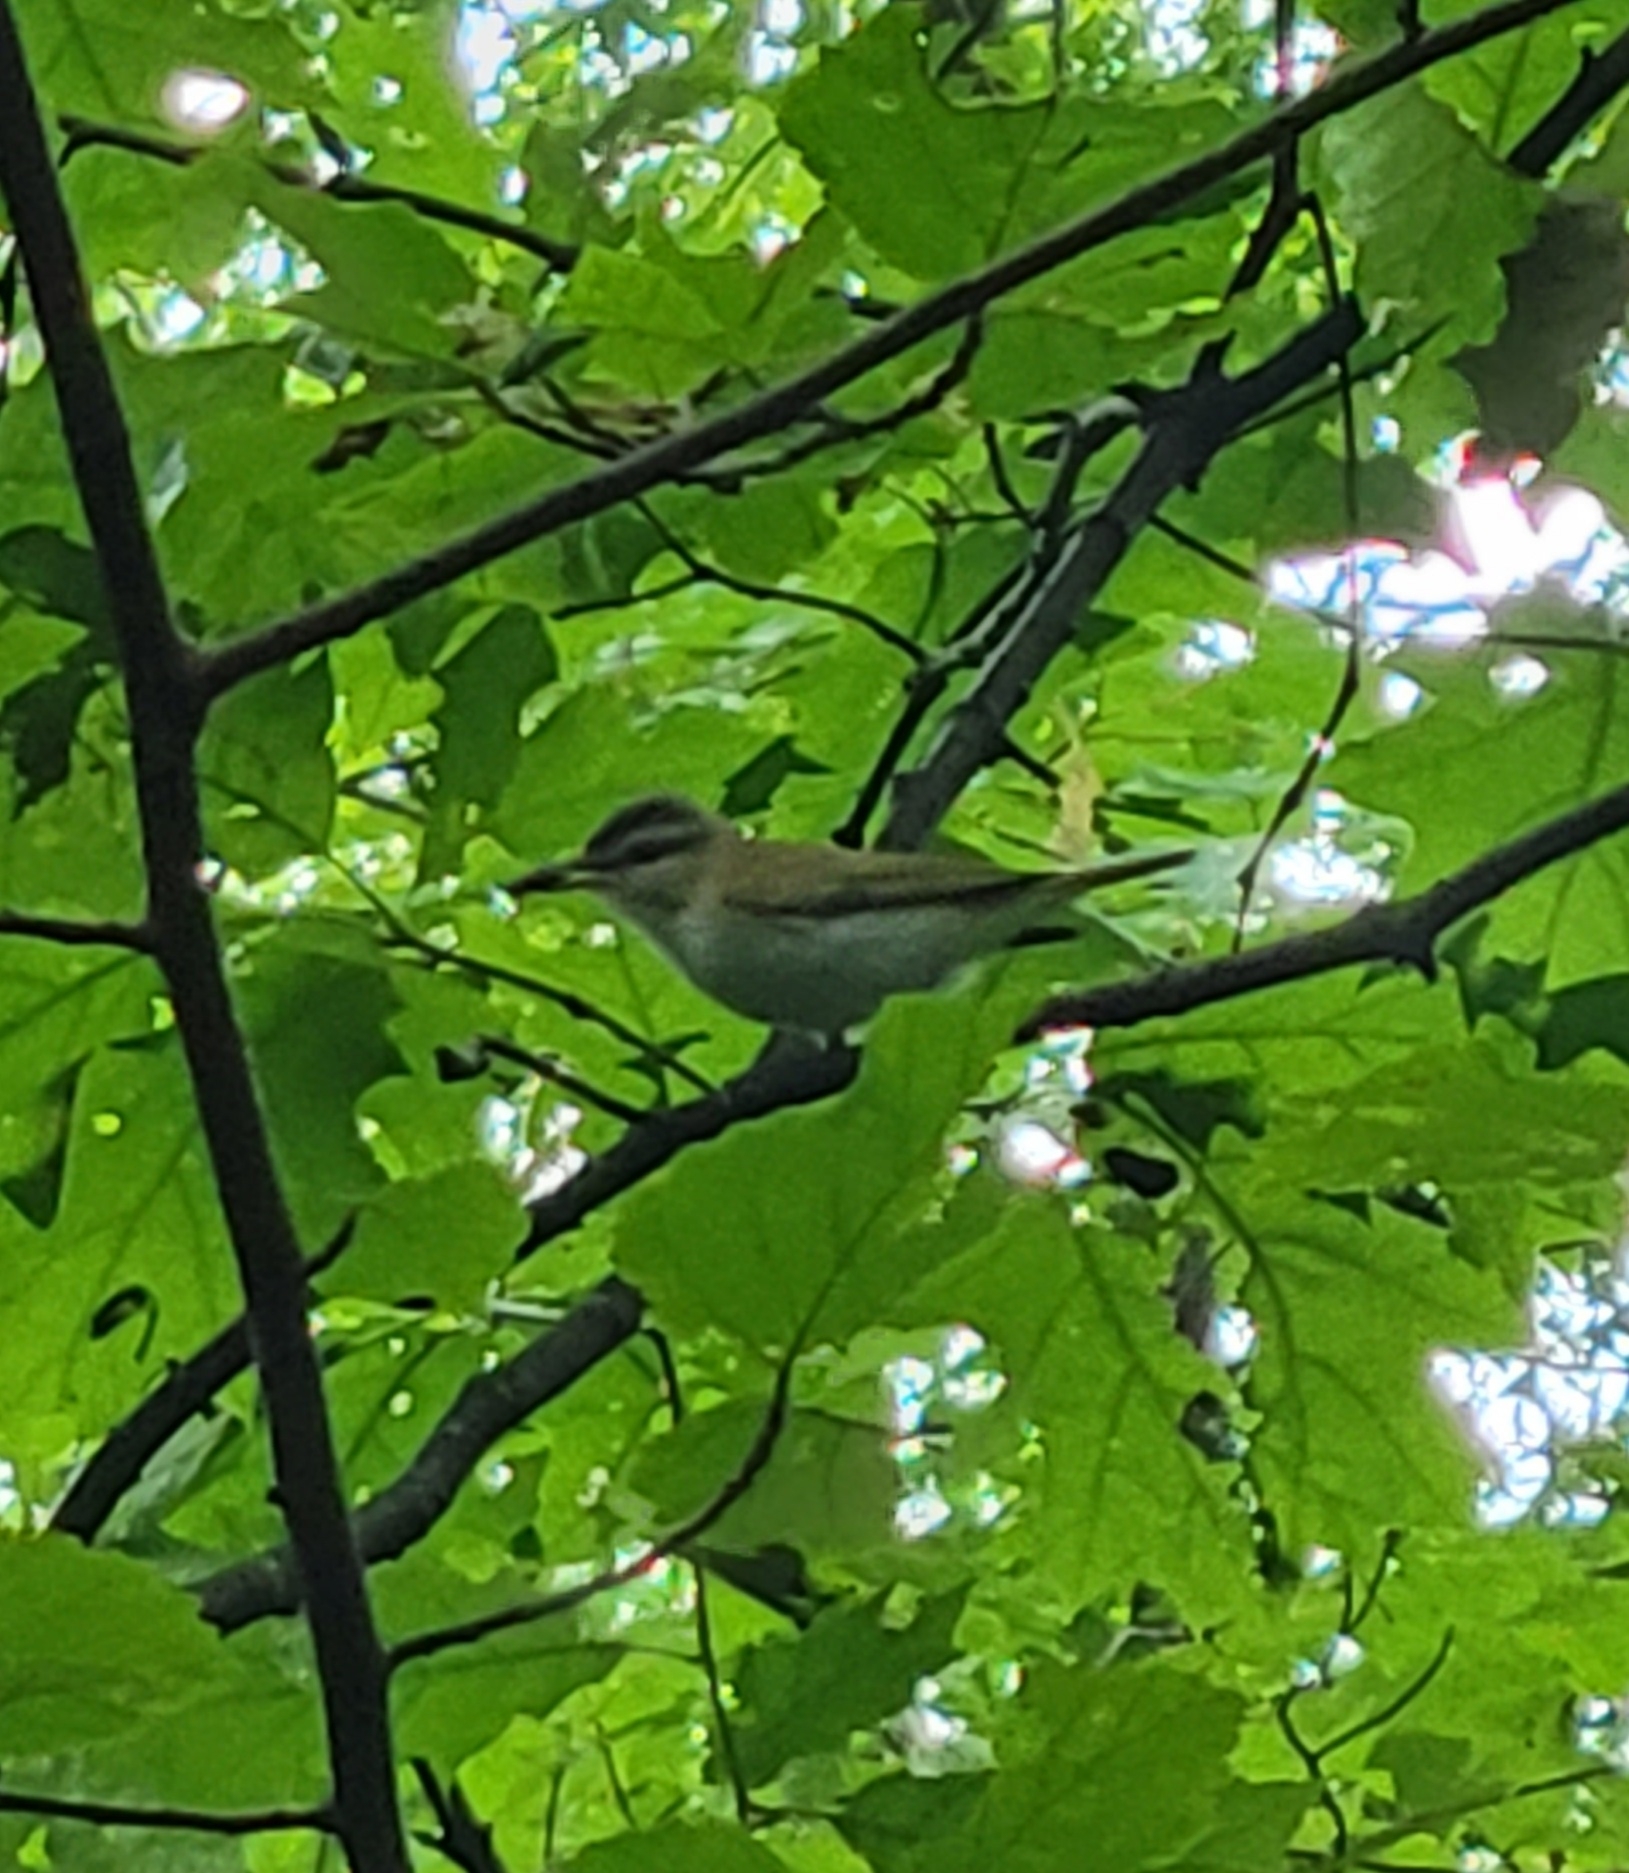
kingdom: Animalia
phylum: Chordata
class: Aves
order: Passeriformes
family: Vireonidae
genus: Vireo
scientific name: Vireo olivaceus
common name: Red-eyed vireo
